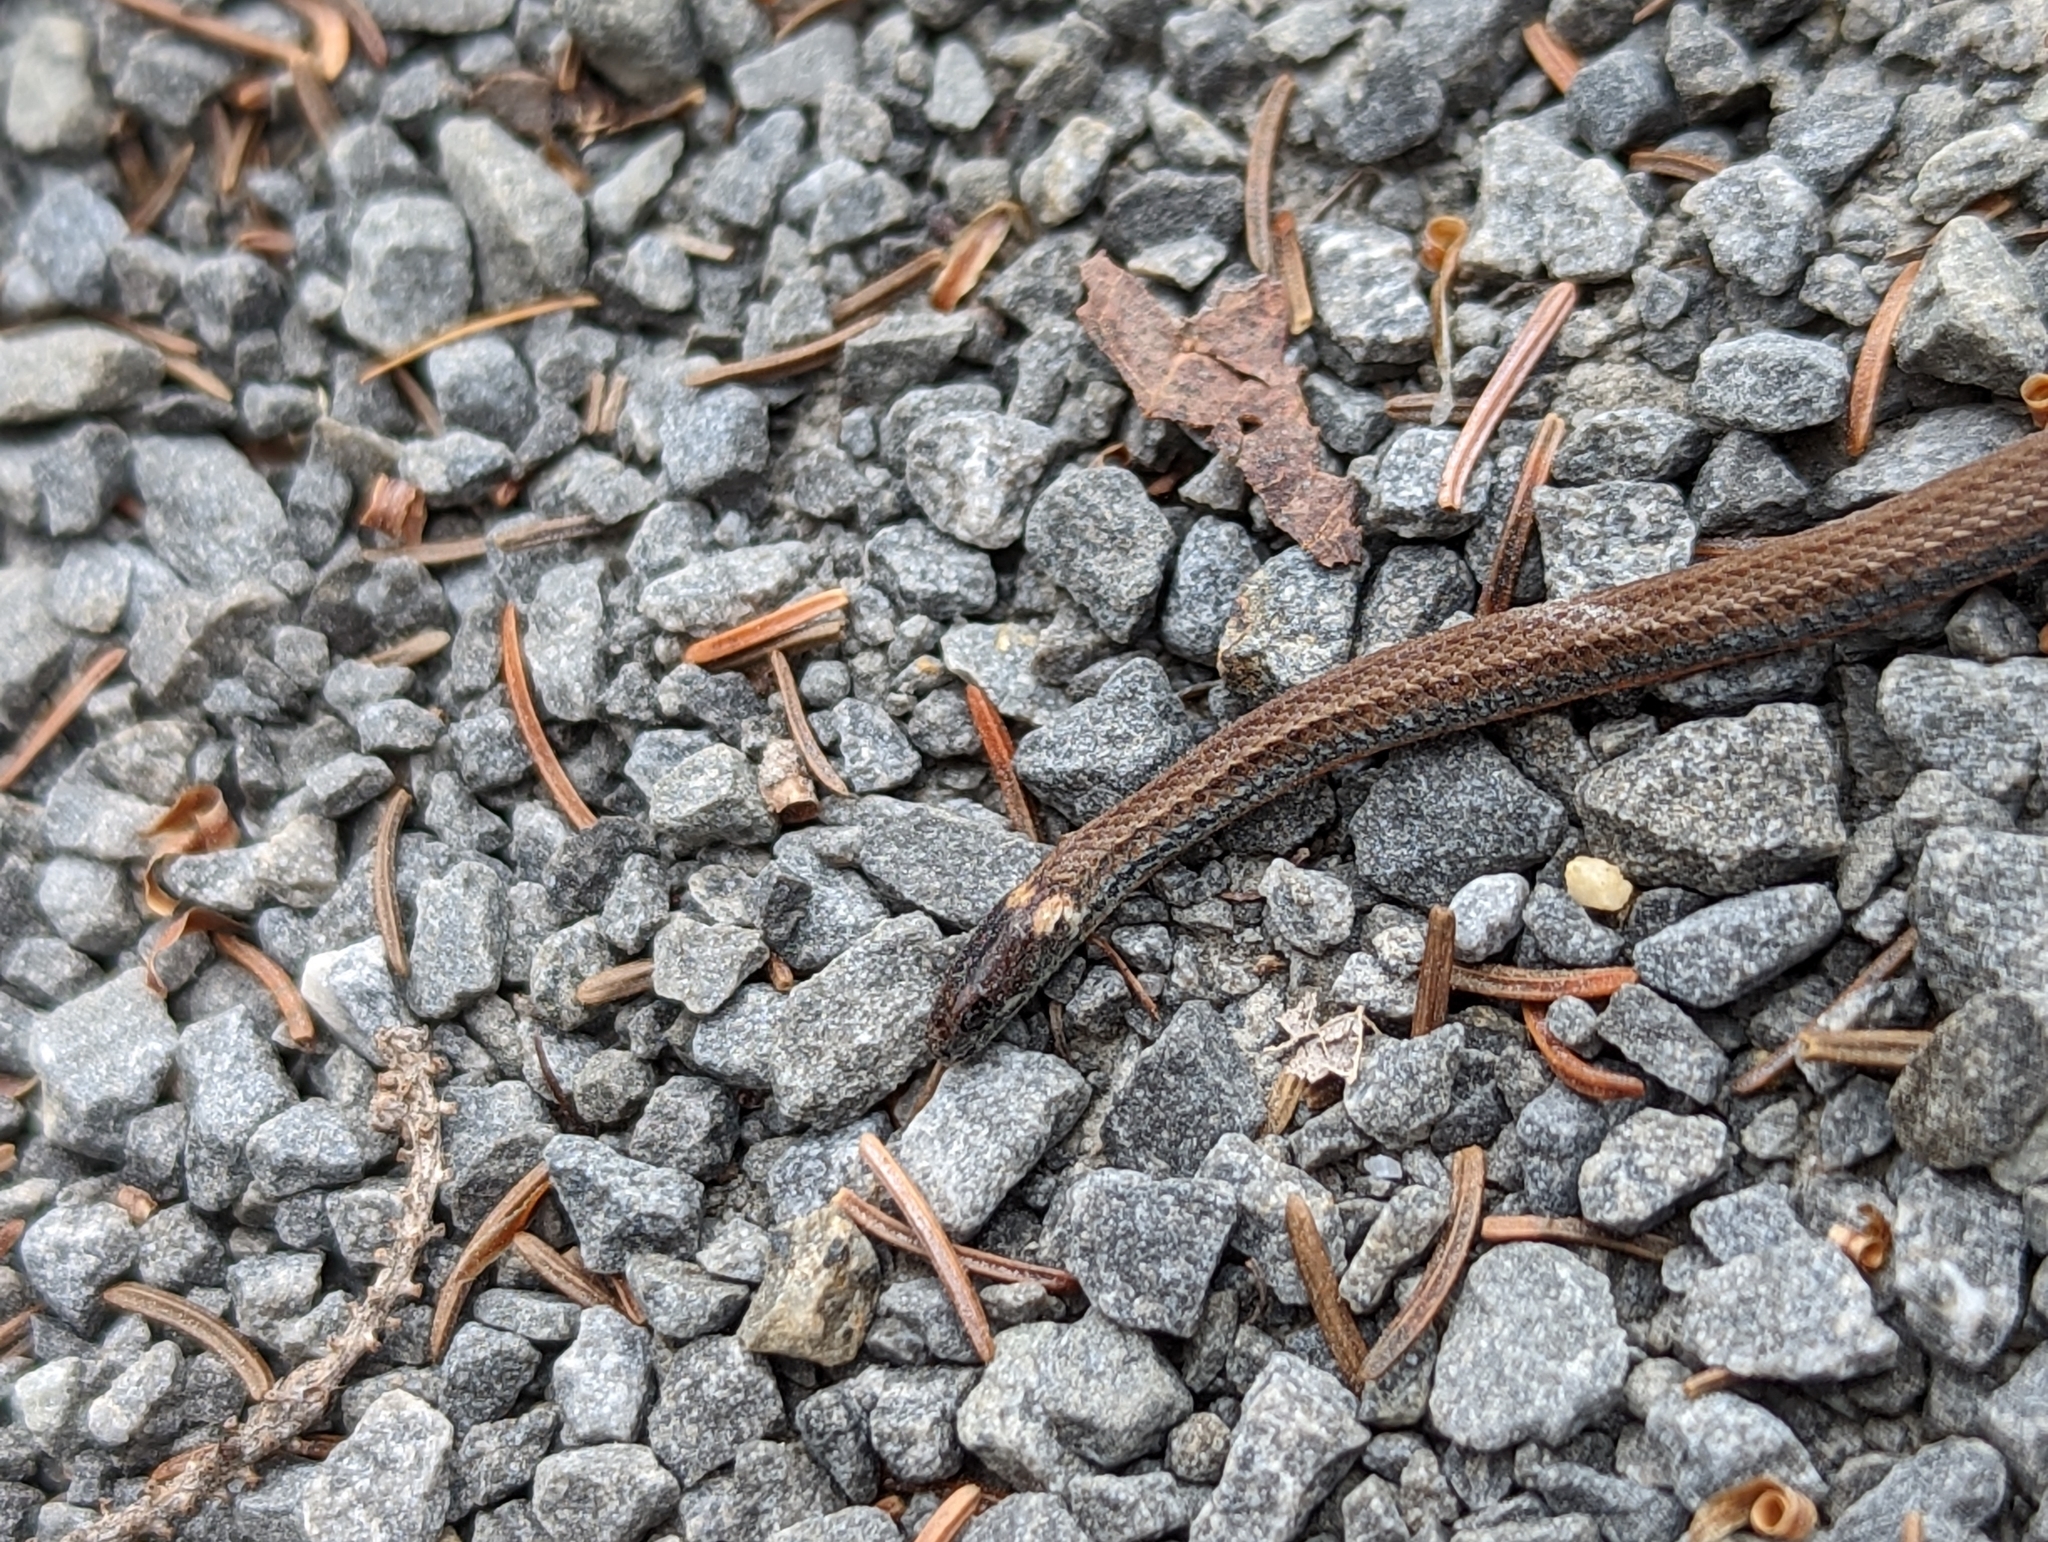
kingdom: Animalia
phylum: Chordata
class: Squamata
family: Colubridae
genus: Storeria
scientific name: Storeria occipitomaculata
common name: Redbelly snake
